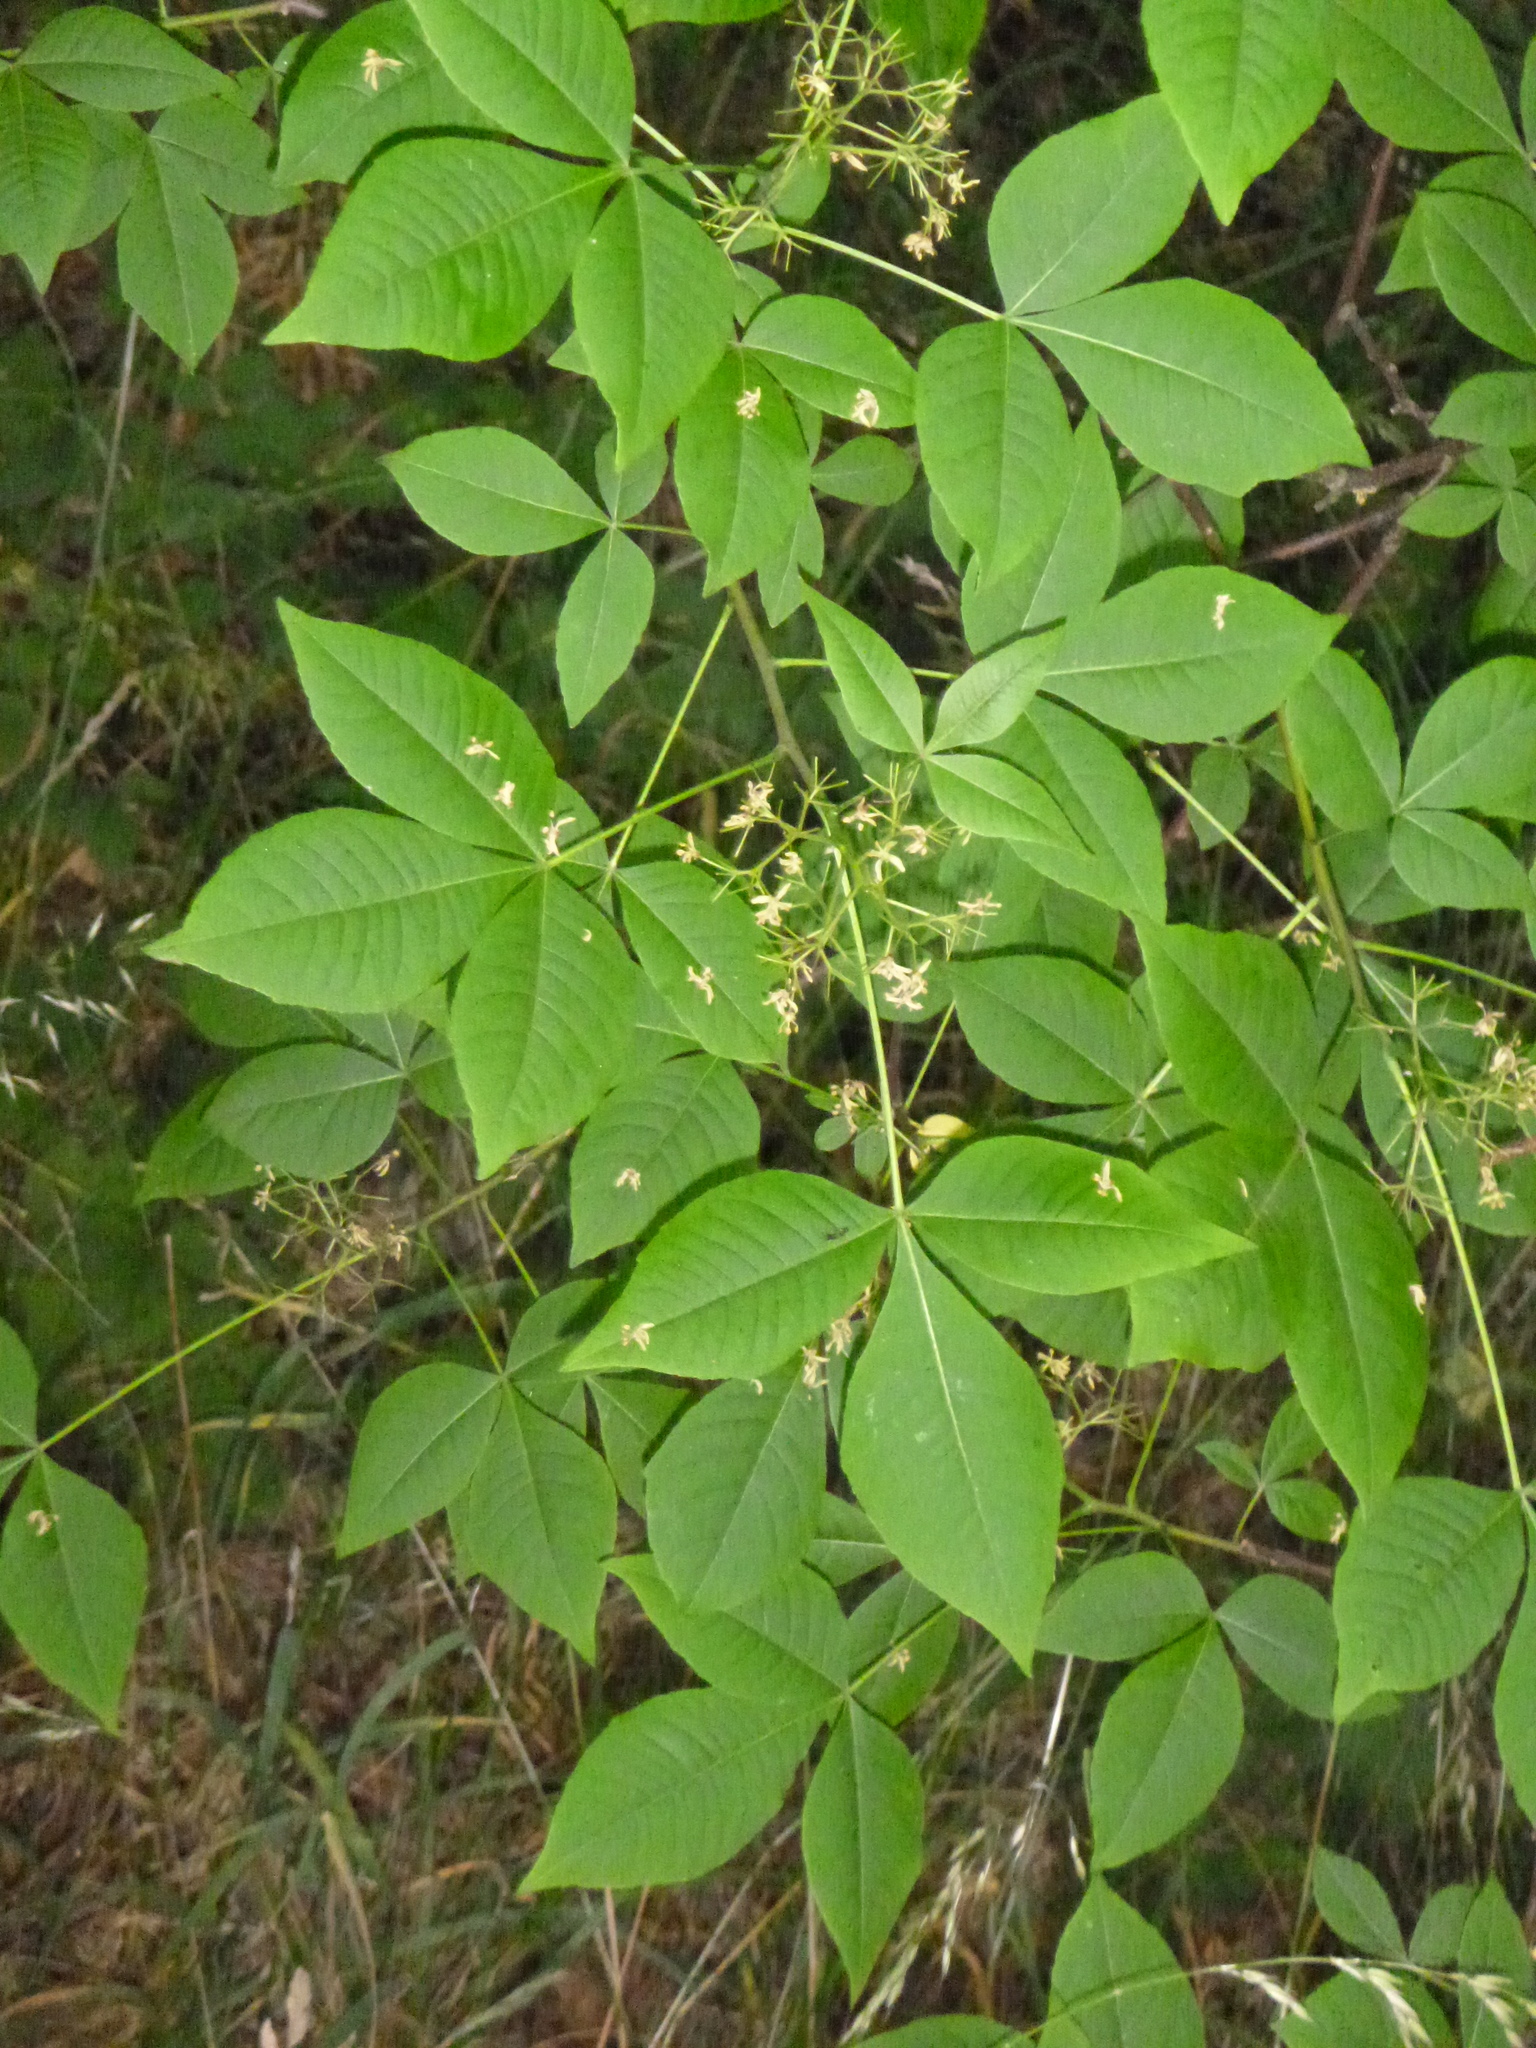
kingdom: Plantae
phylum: Tracheophyta
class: Magnoliopsida
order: Sapindales
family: Rutaceae
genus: Ptelea
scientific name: Ptelea trifoliata
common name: Common hop-tree
